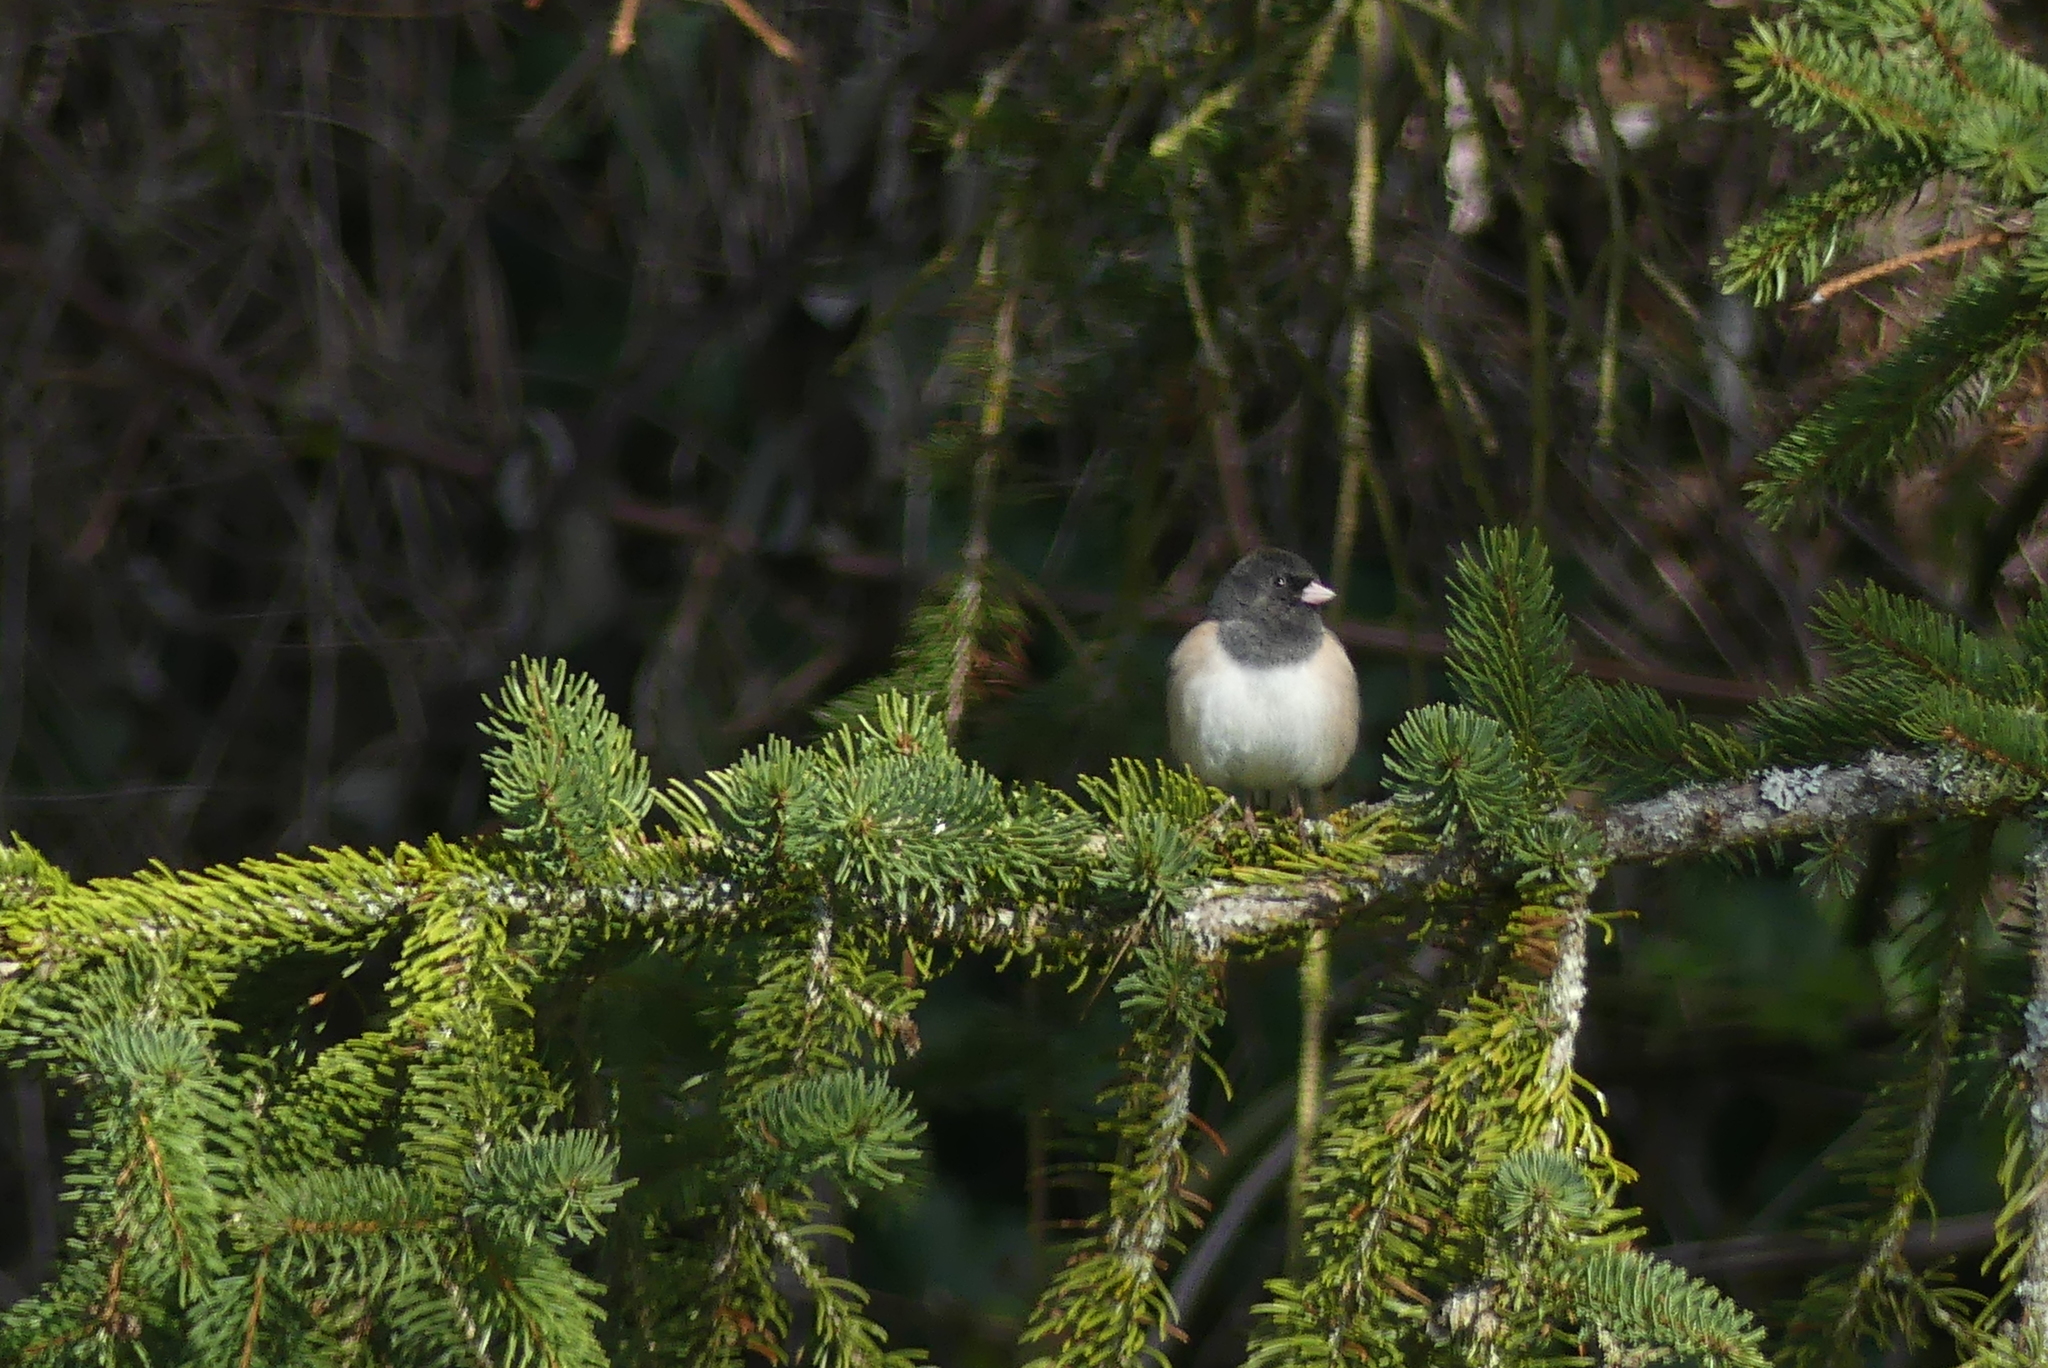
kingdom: Animalia
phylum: Chordata
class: Aves
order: Passeriformes
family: Passerellidae
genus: Junco
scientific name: Junco hyemalis
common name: Dark-eyed junco
